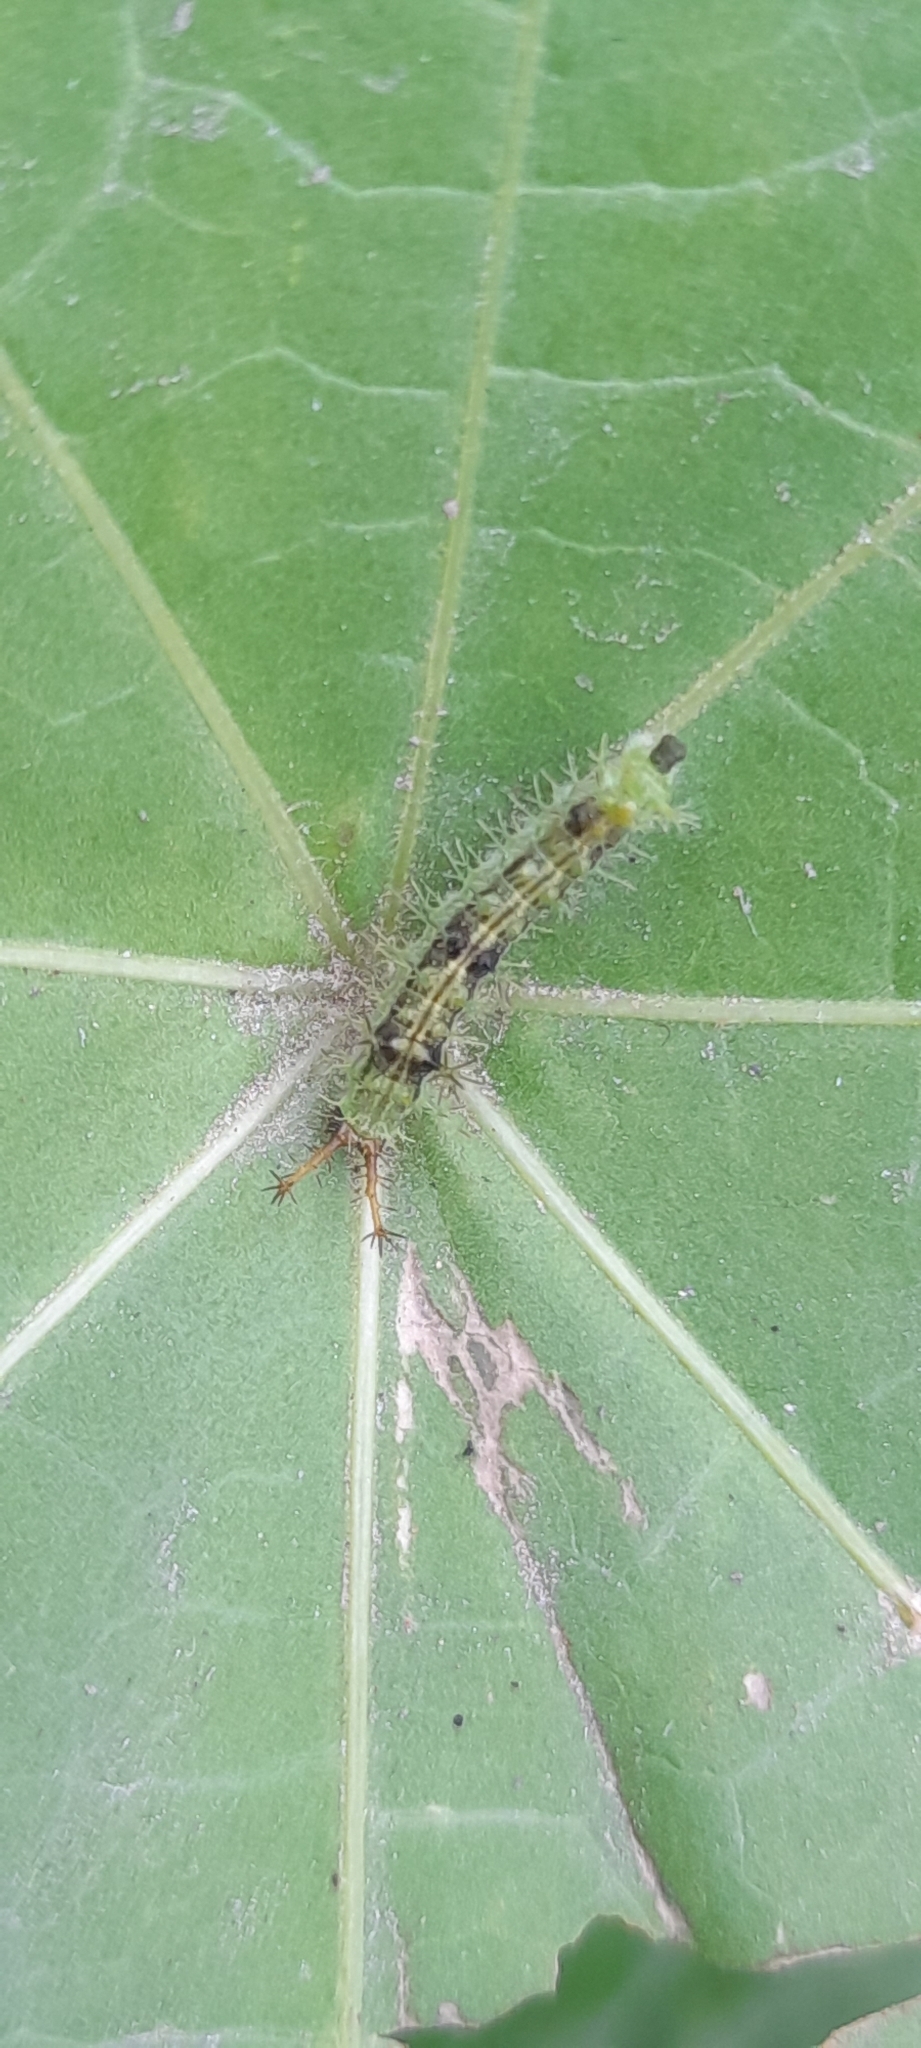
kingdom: Animalia
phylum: Arthropoda
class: Insecta
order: Lepidoptera
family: Nymphalidae
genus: Ariadne
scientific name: Ariadne merione
